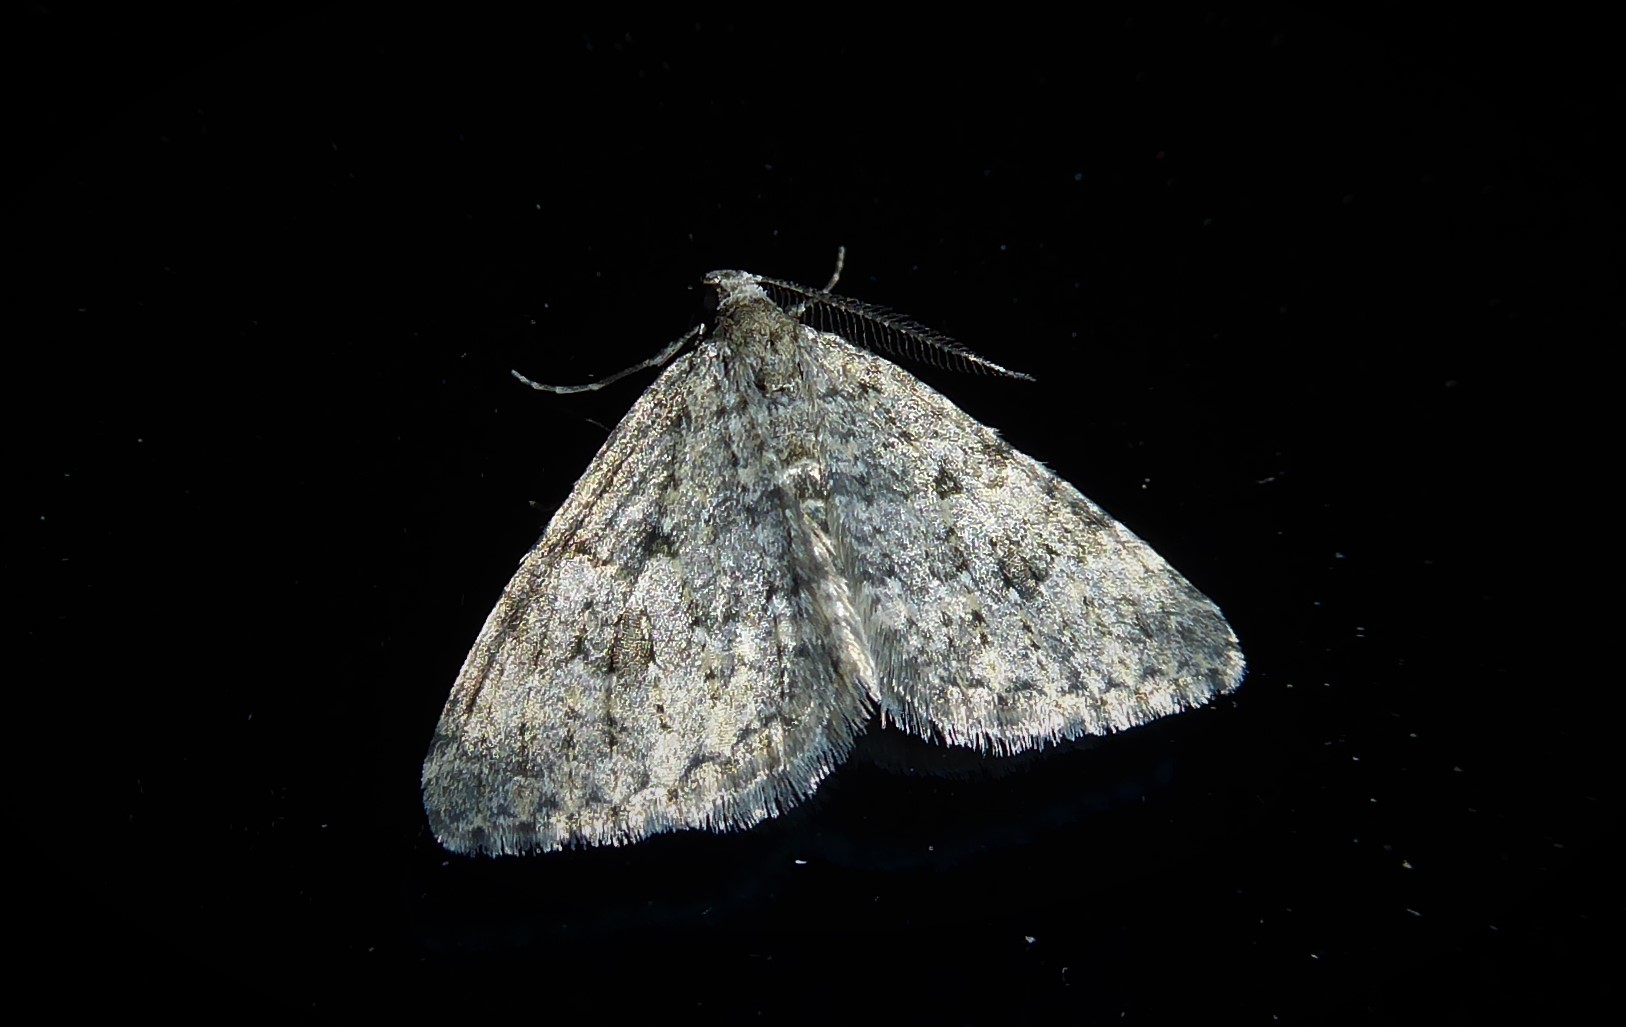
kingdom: Animalia
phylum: Arthropoda
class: Insecta
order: Lepidoptera
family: Geometridae
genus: Helastia
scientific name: Helastia corcularia
